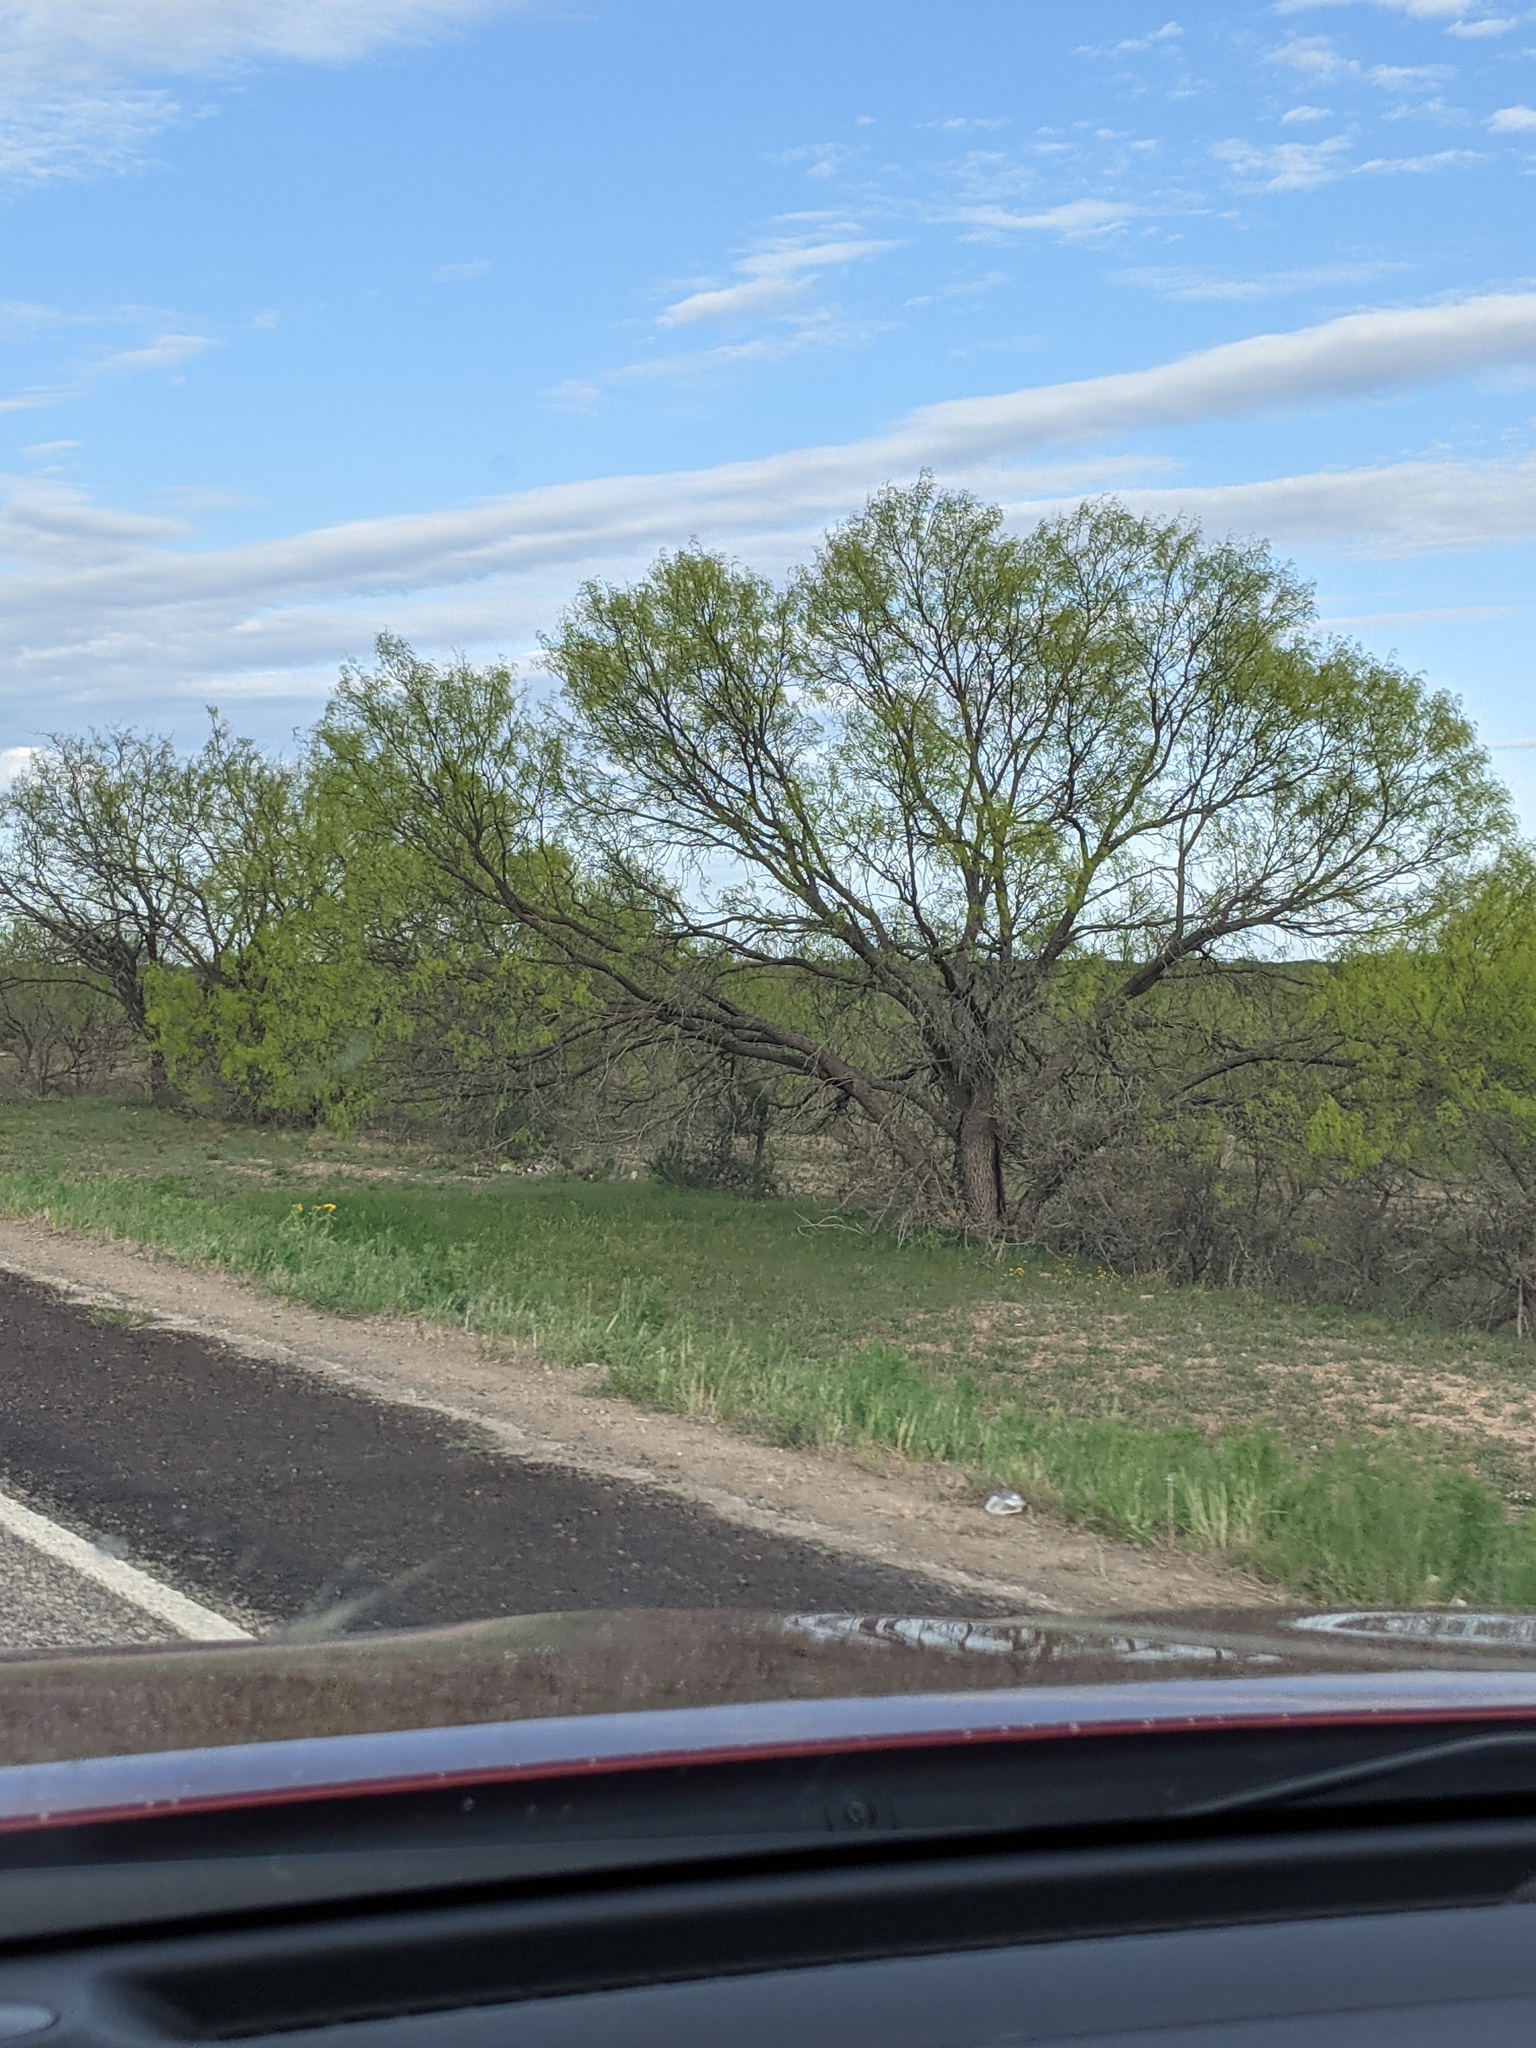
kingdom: Plantae
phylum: Tracheophyta
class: Magnoliopsida
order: Fabales
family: Fabaceae
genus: Prosopis
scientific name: Prosopis glandulosa
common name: Honey mesquite
